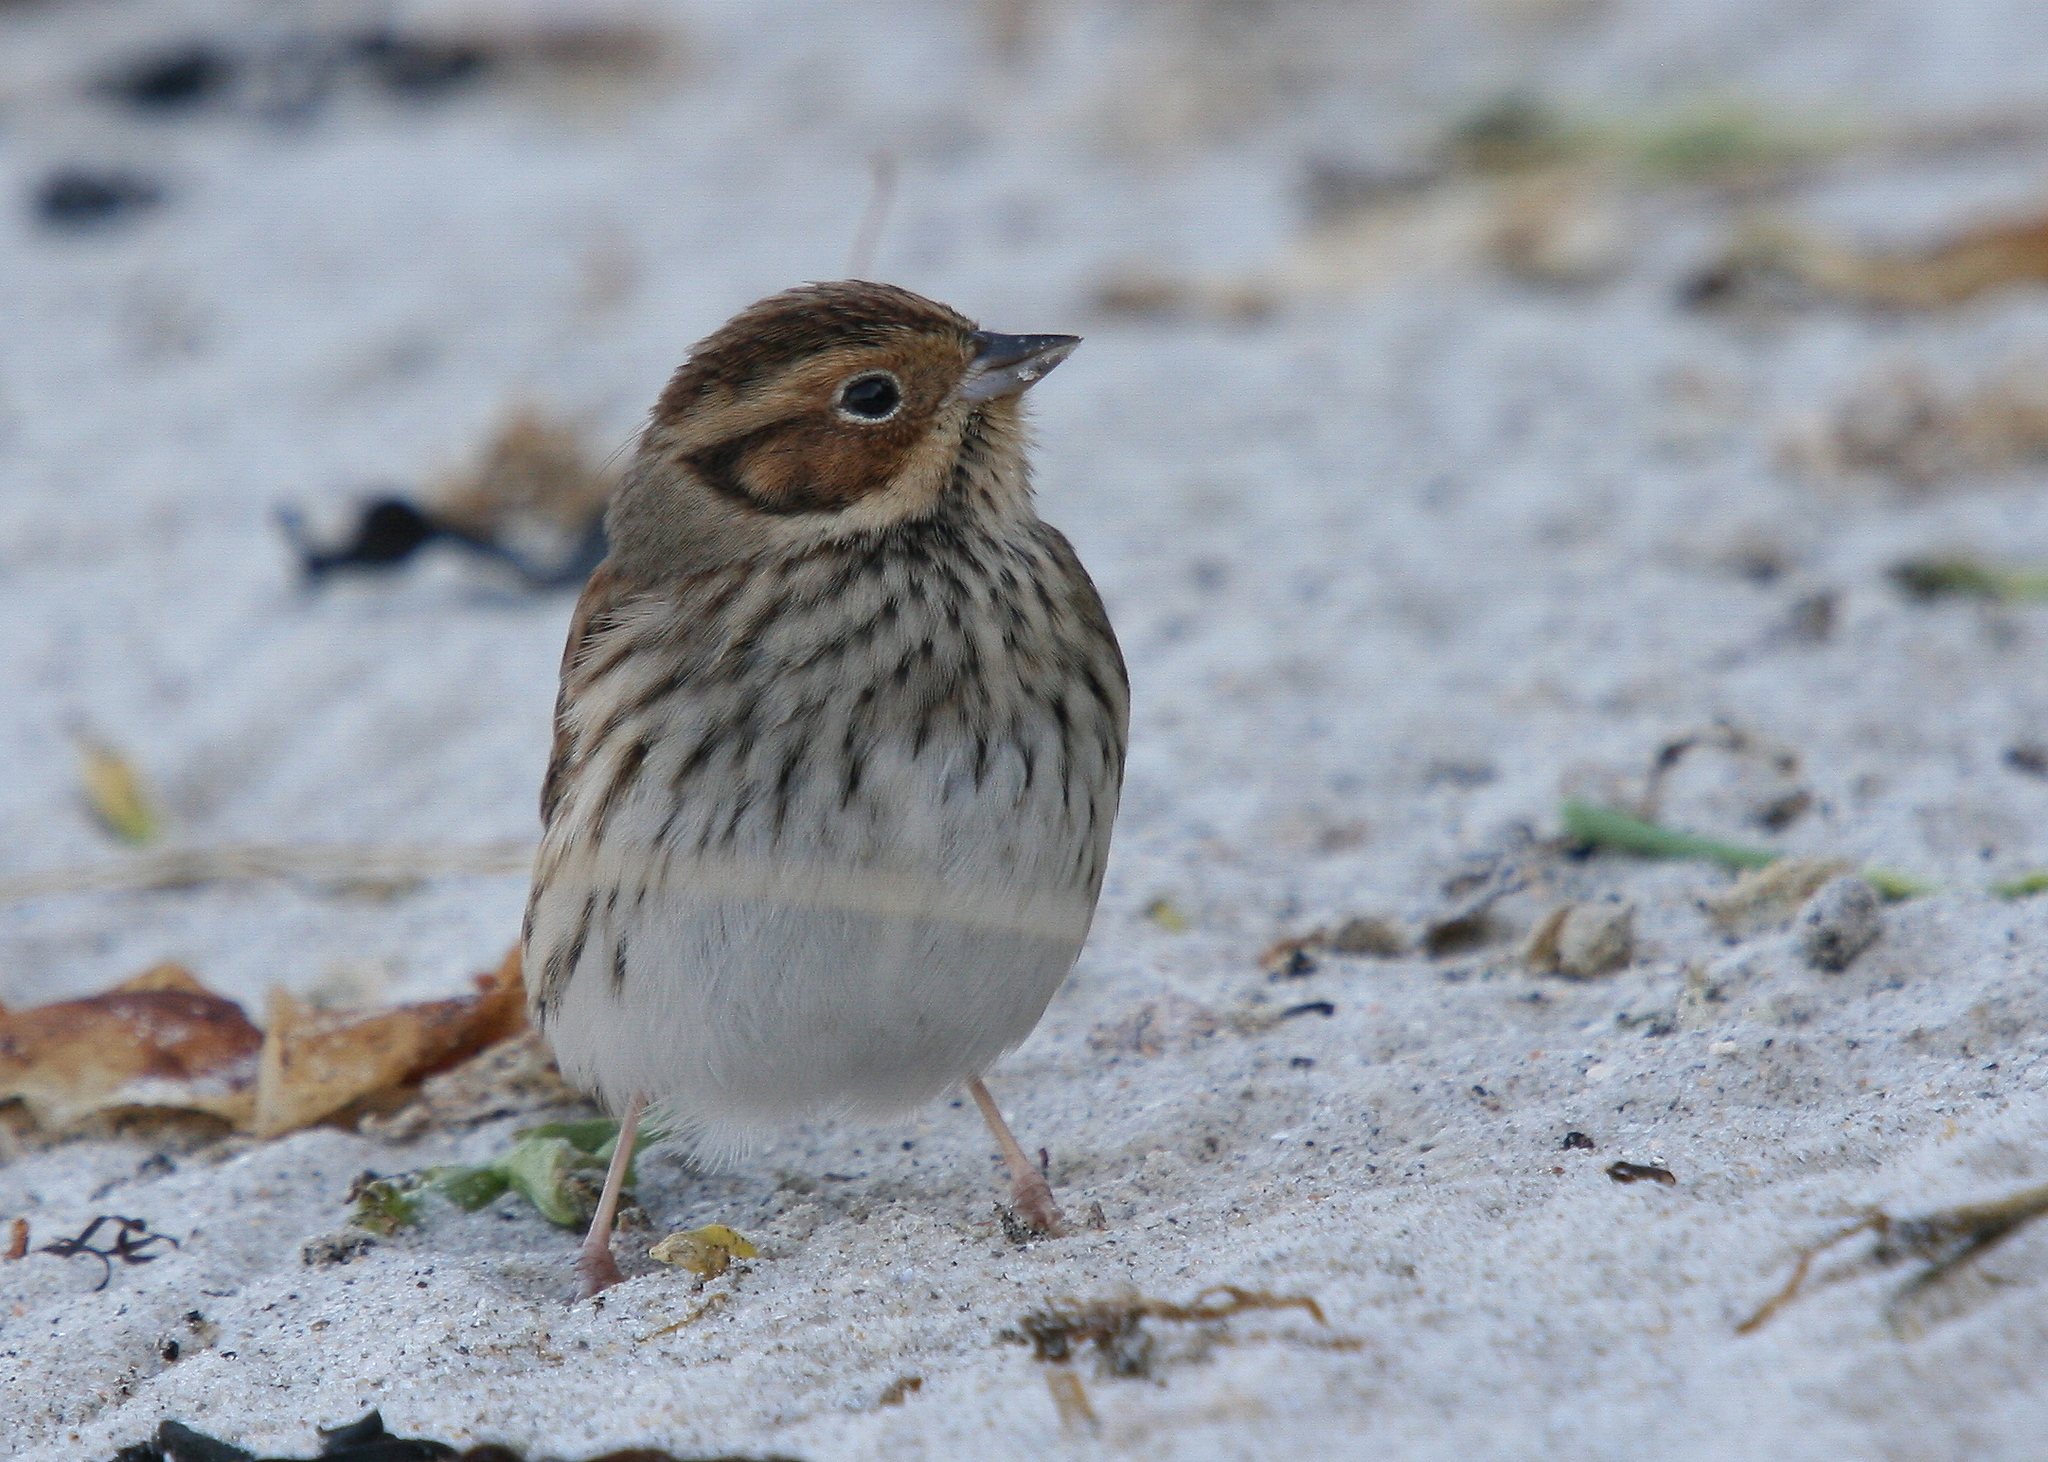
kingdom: Animalia
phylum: Chordata
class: Aves
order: Passeriformes
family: Emberizidae
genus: Emberiza
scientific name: Emberiza pusilla
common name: Little bunting
